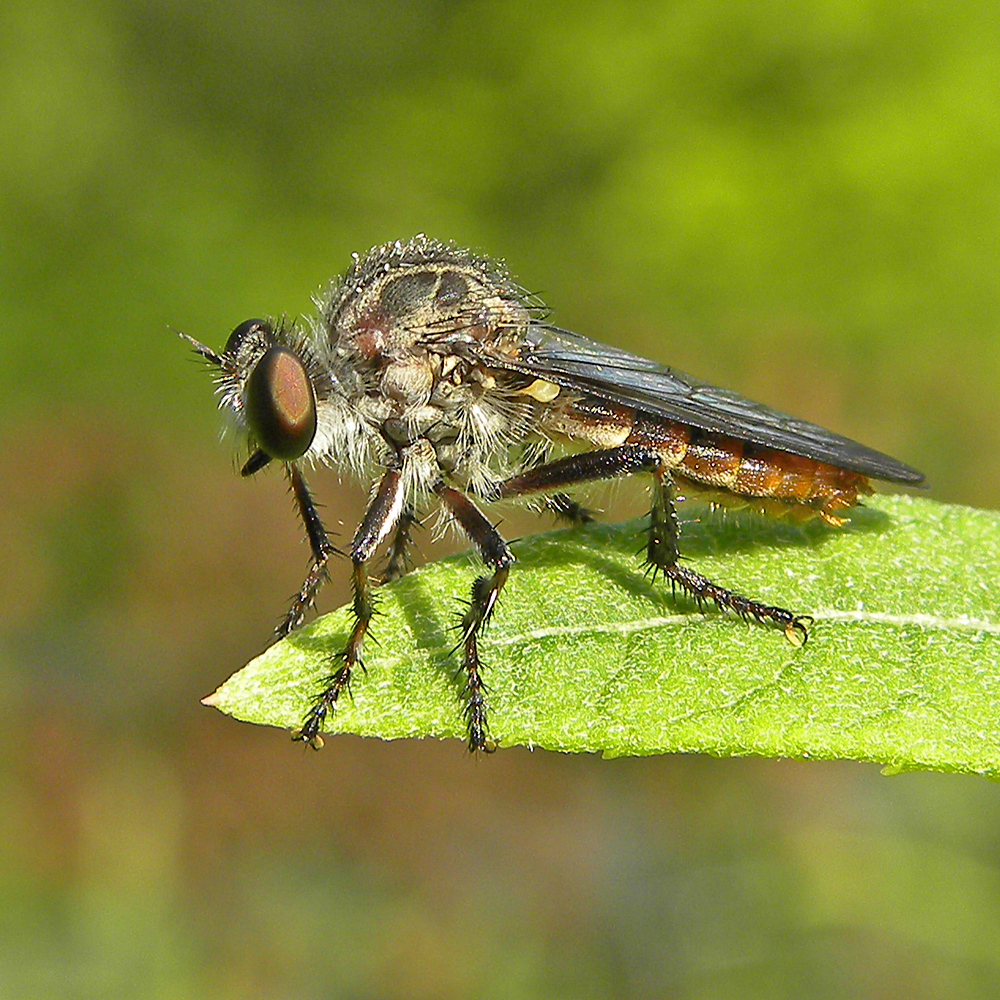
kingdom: Animalia
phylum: Arthropoda
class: Insecta
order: Diptera
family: Asilidae
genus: Heteropogon
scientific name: Heteropogon macerinus
